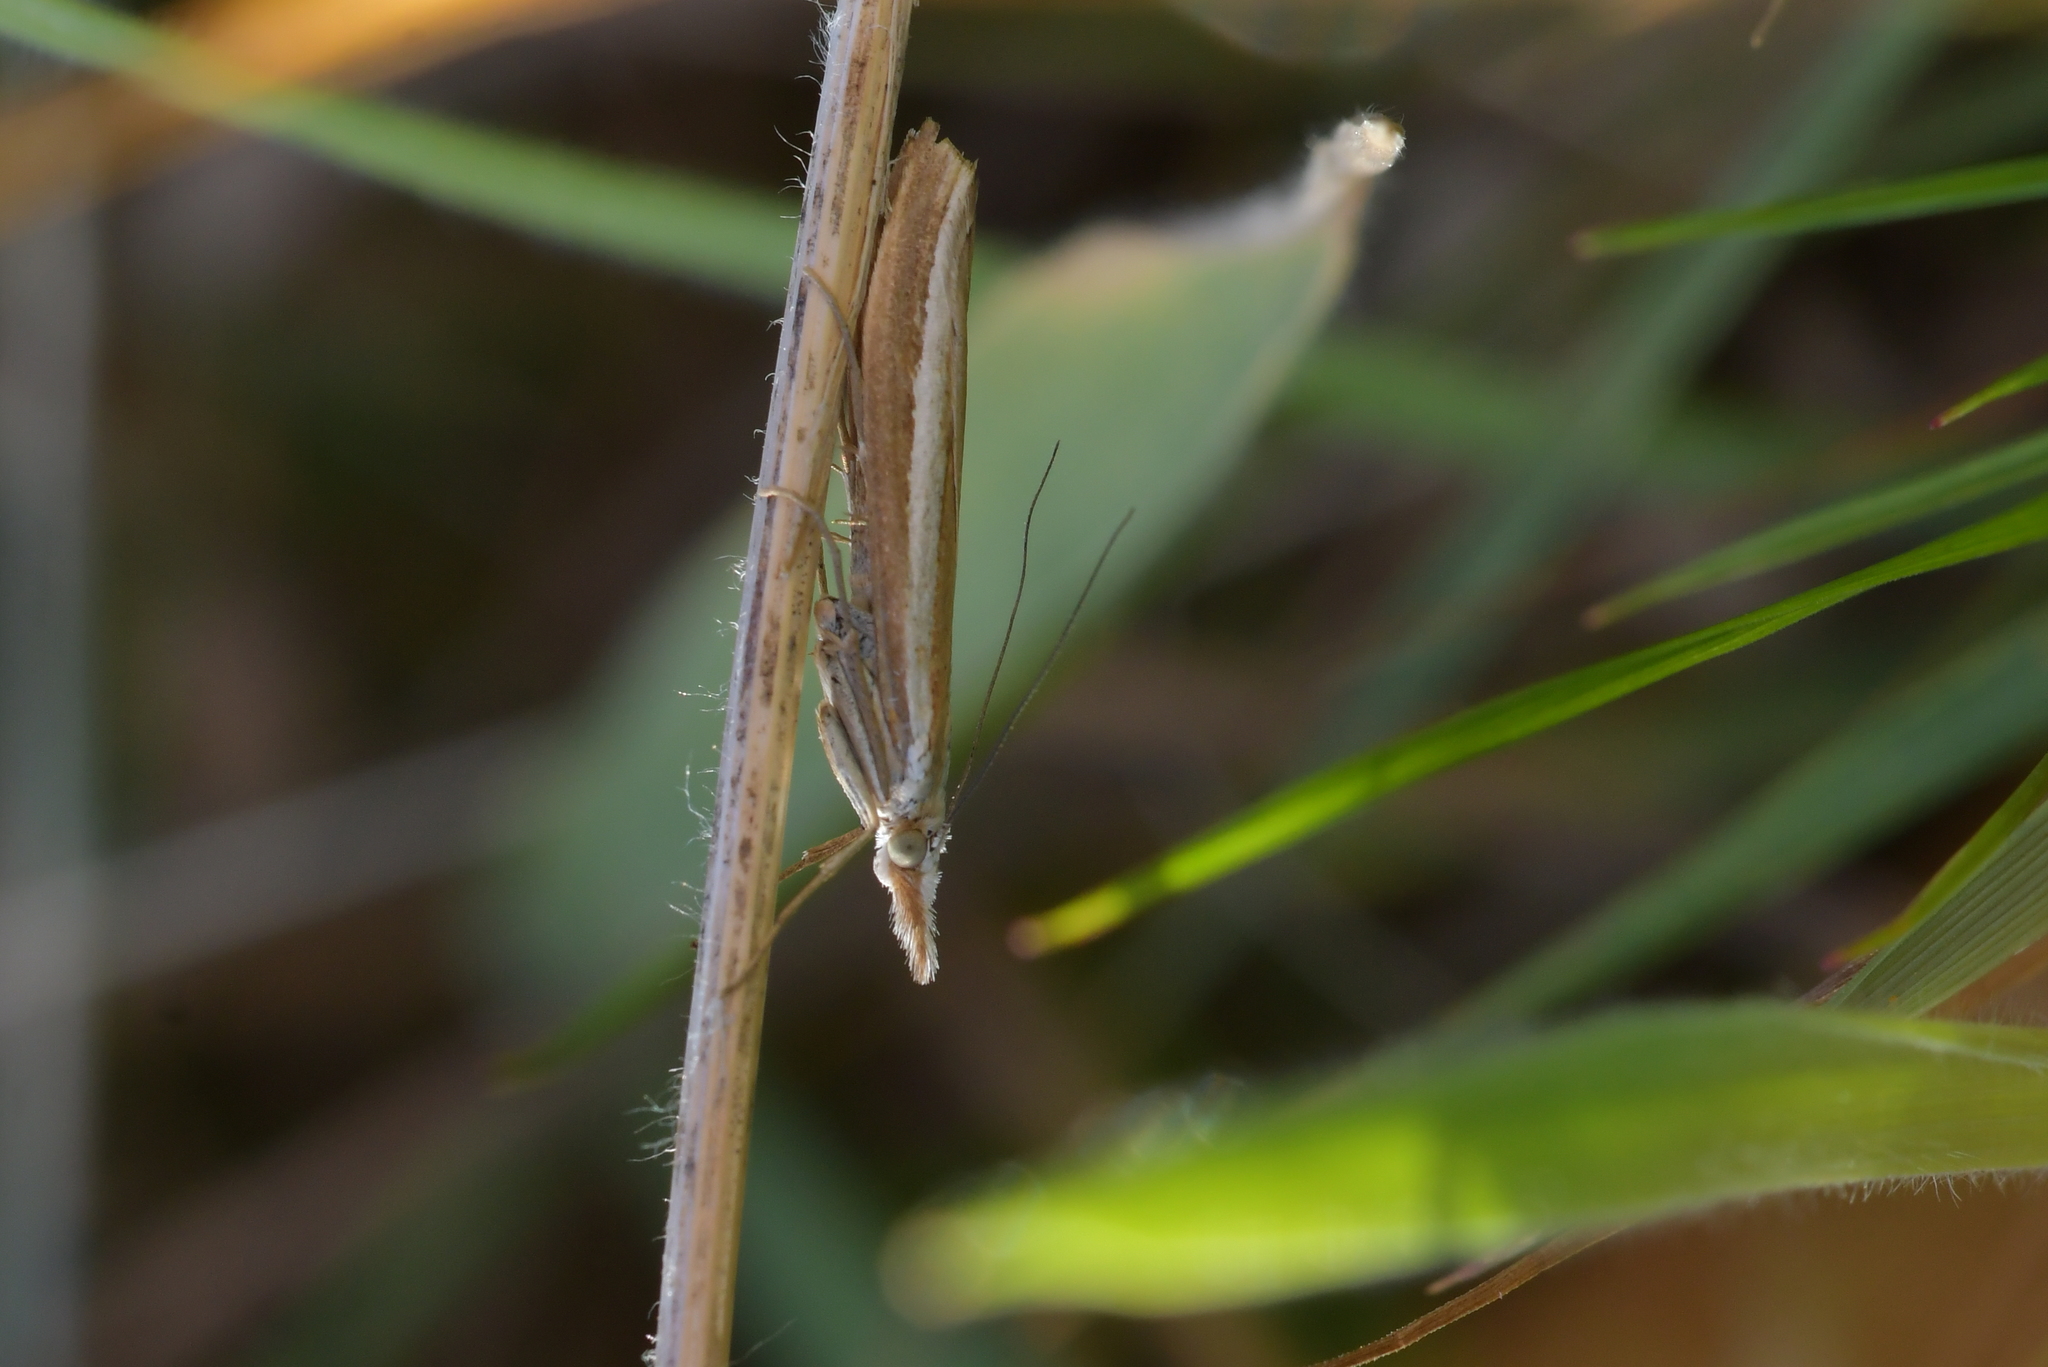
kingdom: Animalia
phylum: Arthropoda
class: Insecta
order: Lepidoptera
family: Crambidae
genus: Orocrambus
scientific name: Orocrambus vittellus
